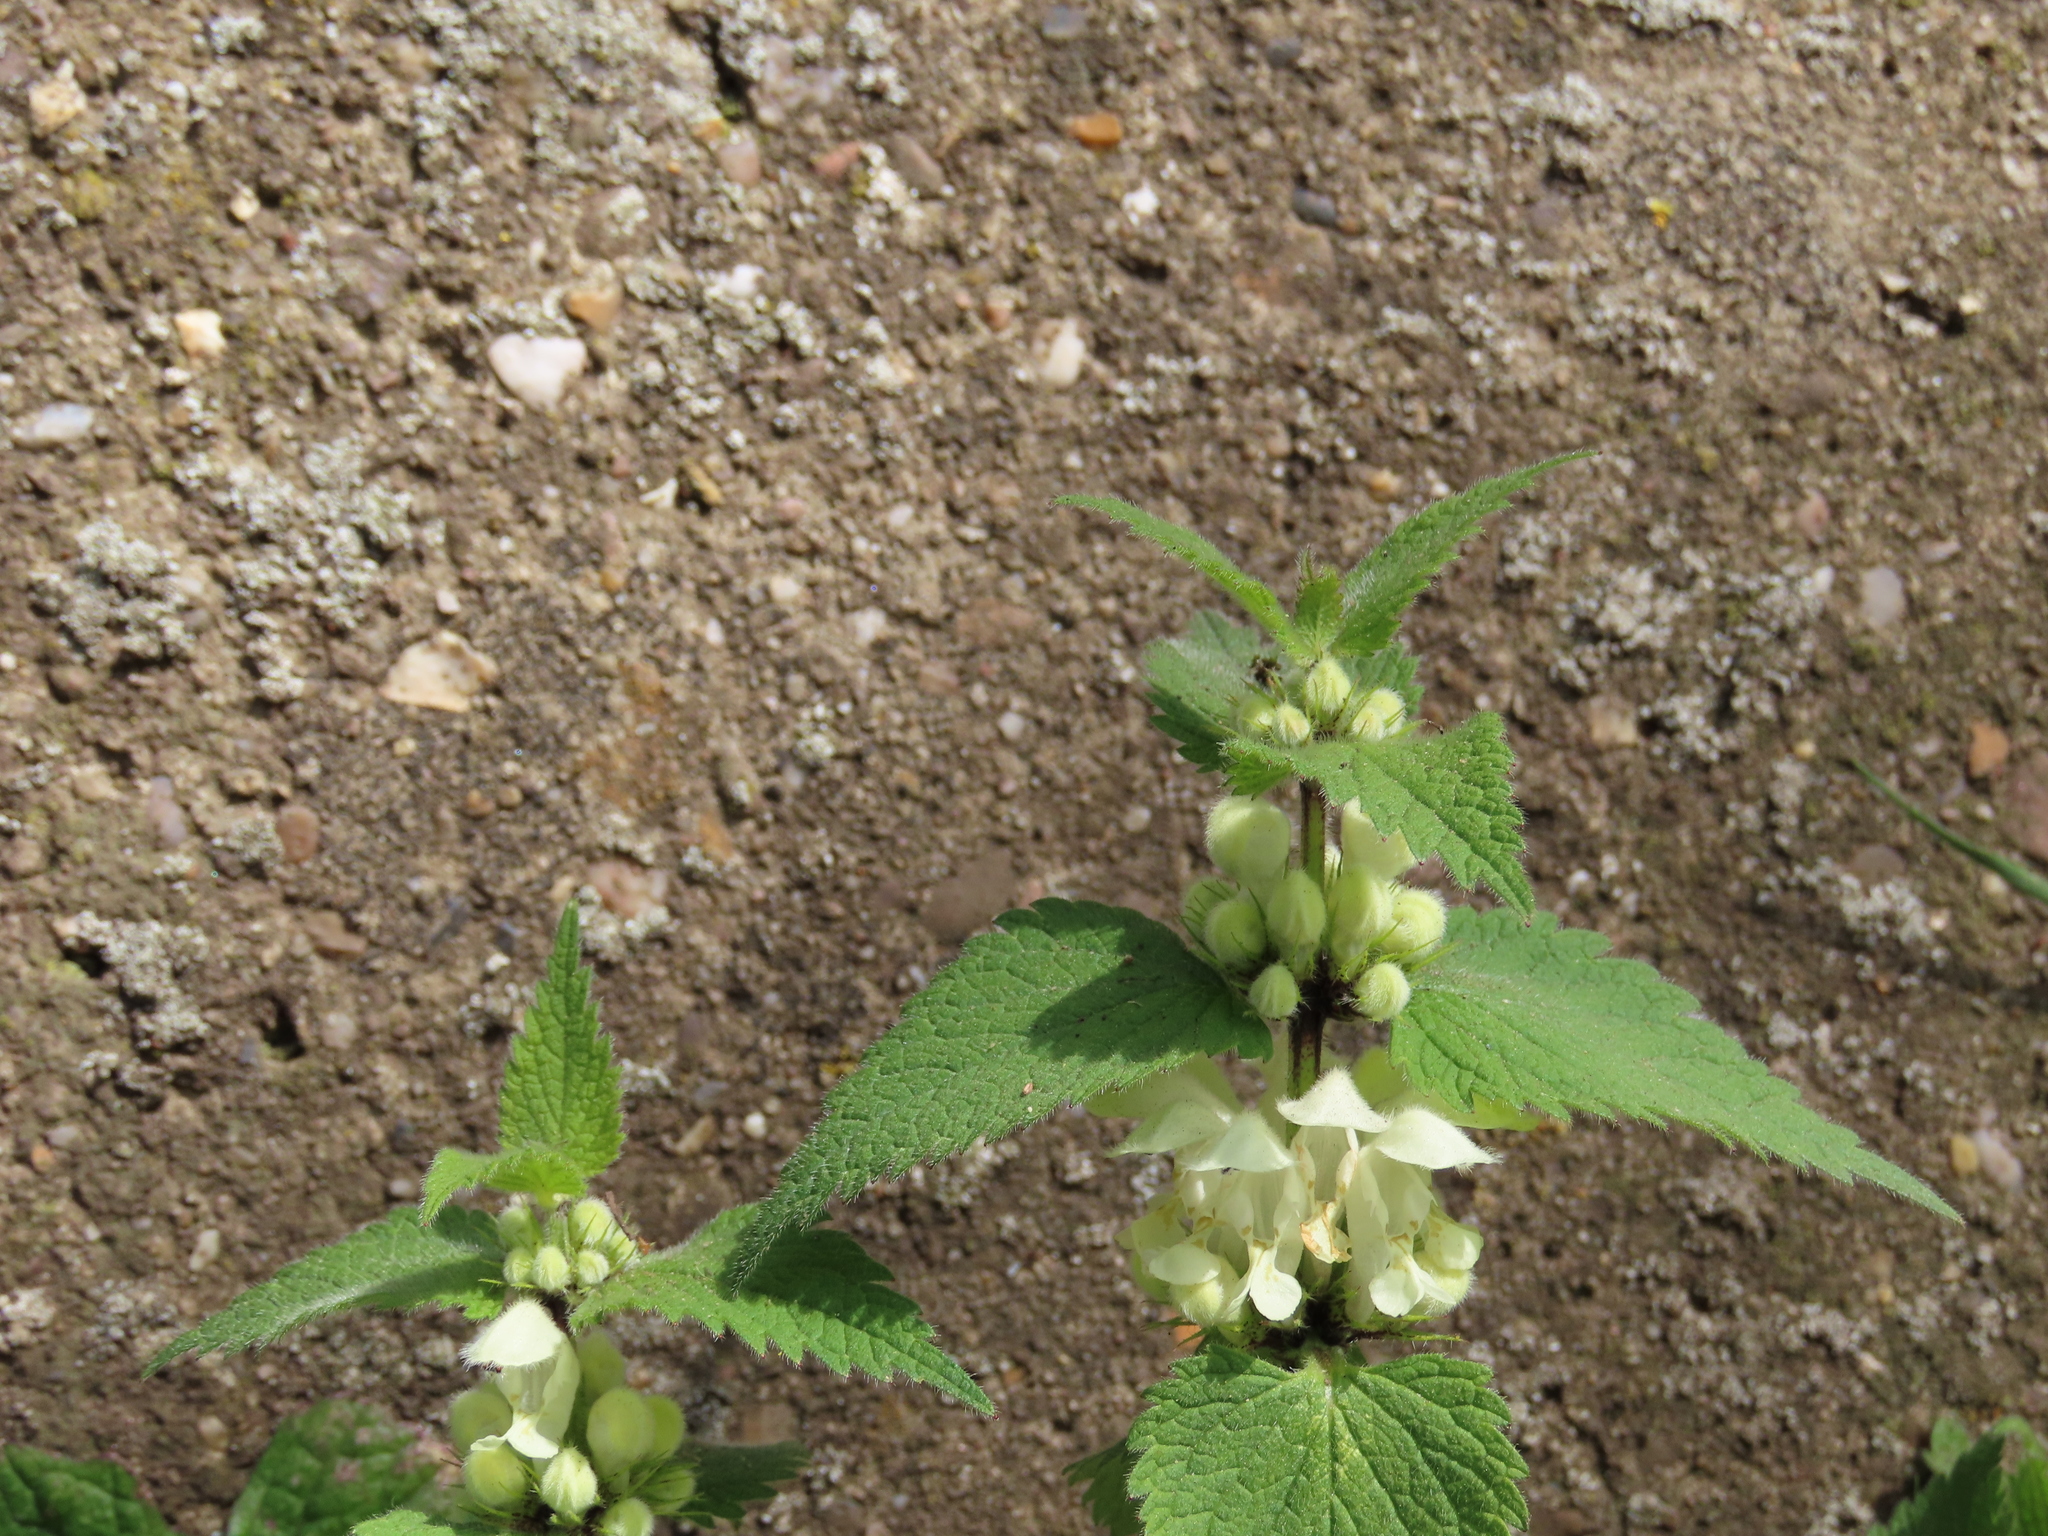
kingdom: Plantae
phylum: Tracheophyta
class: Magnoliopsida
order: Lamiales
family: Lamiaceae
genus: Lamium
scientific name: Lamium album
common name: White dead-nettle
